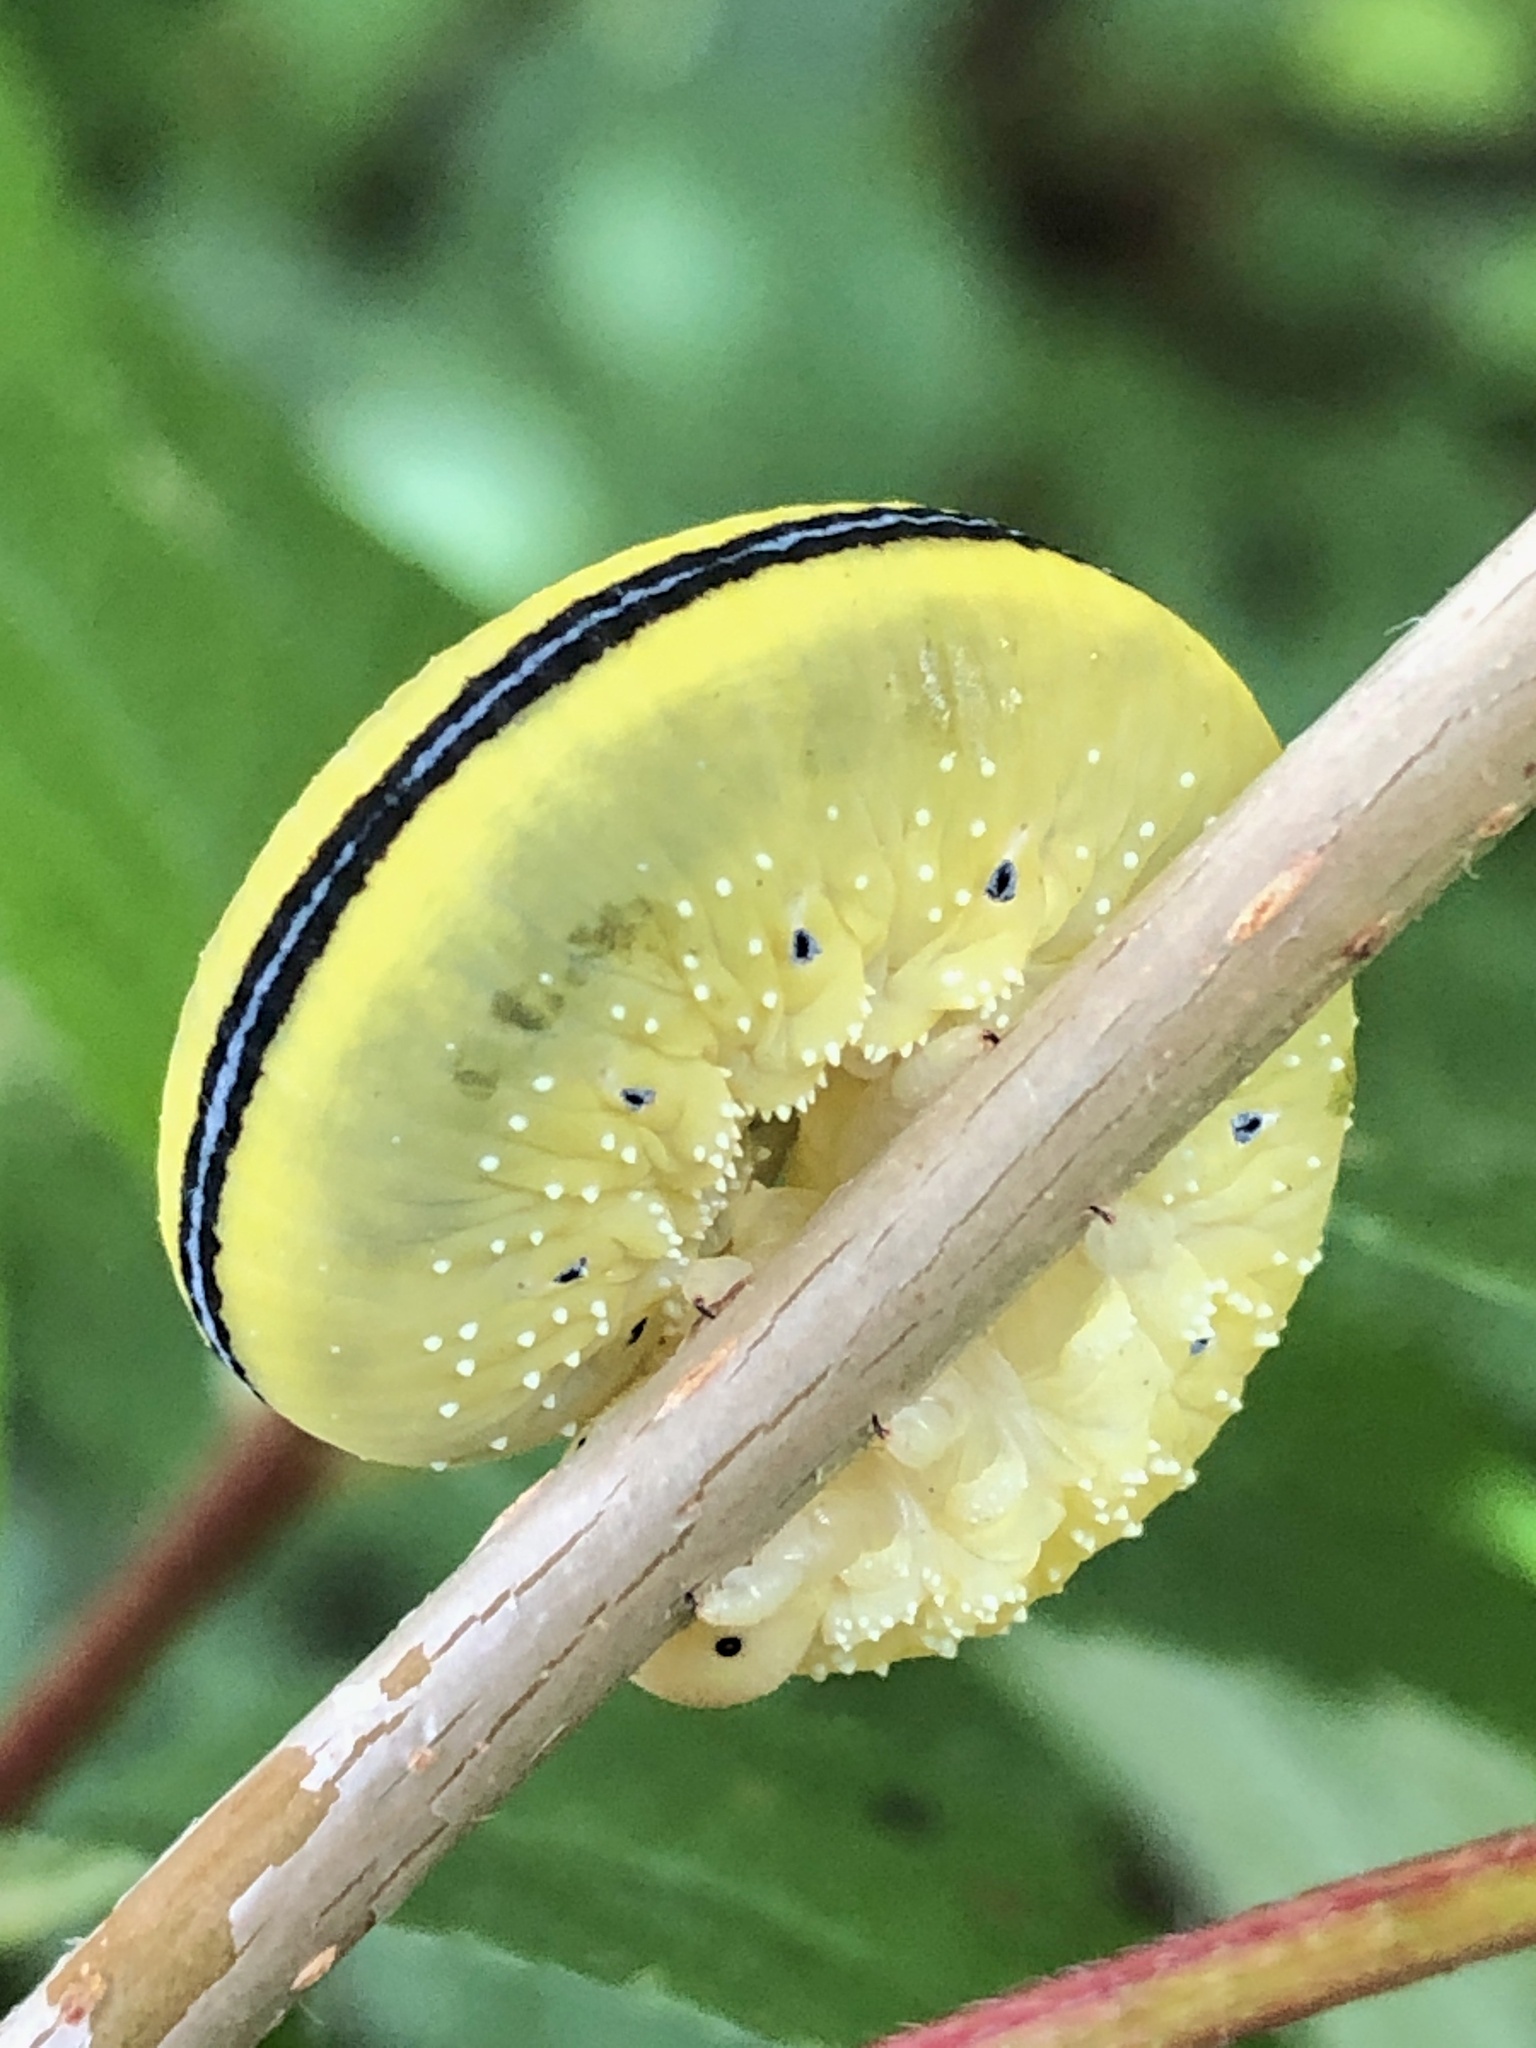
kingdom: Animalia
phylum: Arthropoda
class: Insecta
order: Hymenoptera
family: Cimbicidae
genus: Cimbex
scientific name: Cimbex americana
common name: Elm sawfly
